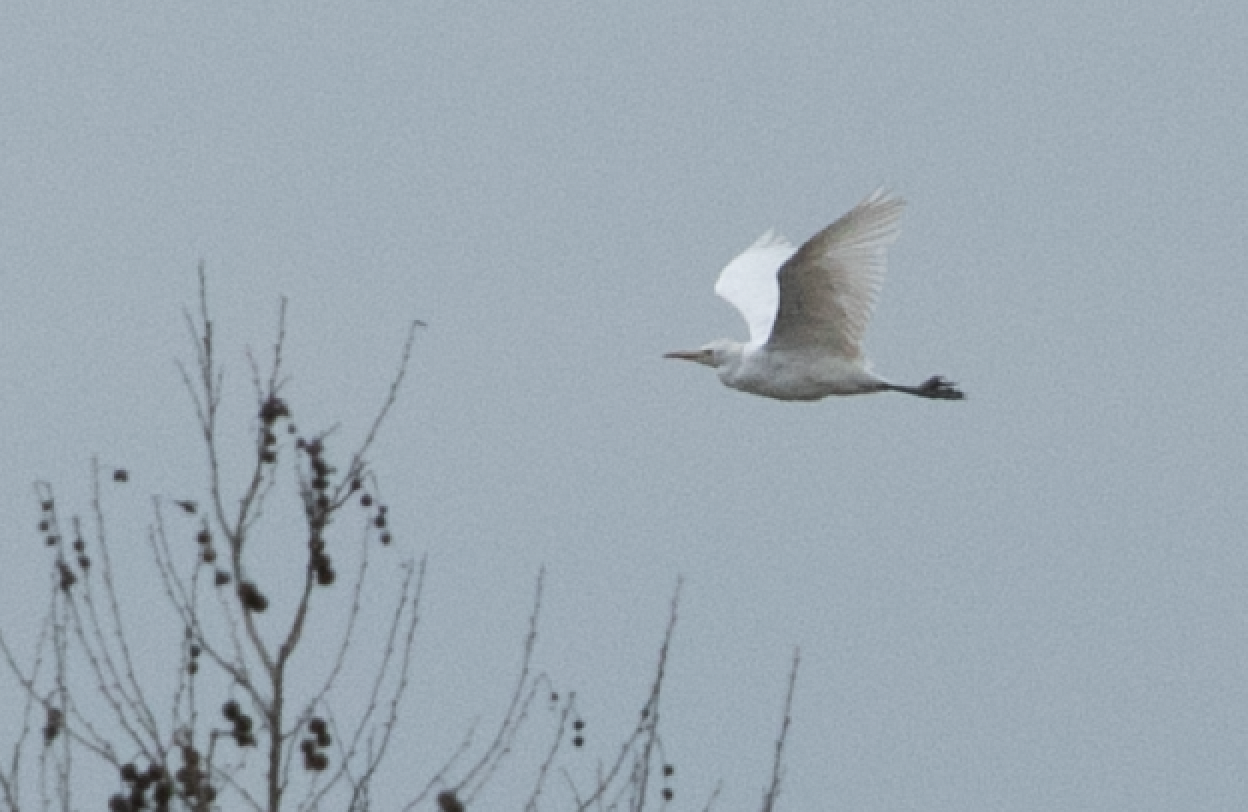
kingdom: Animalia
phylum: Chordata
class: Aves
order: Pelecaniformes
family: Ardeidae
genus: Bubulcus
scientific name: Bubulcus ibis
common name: Cattle egret
